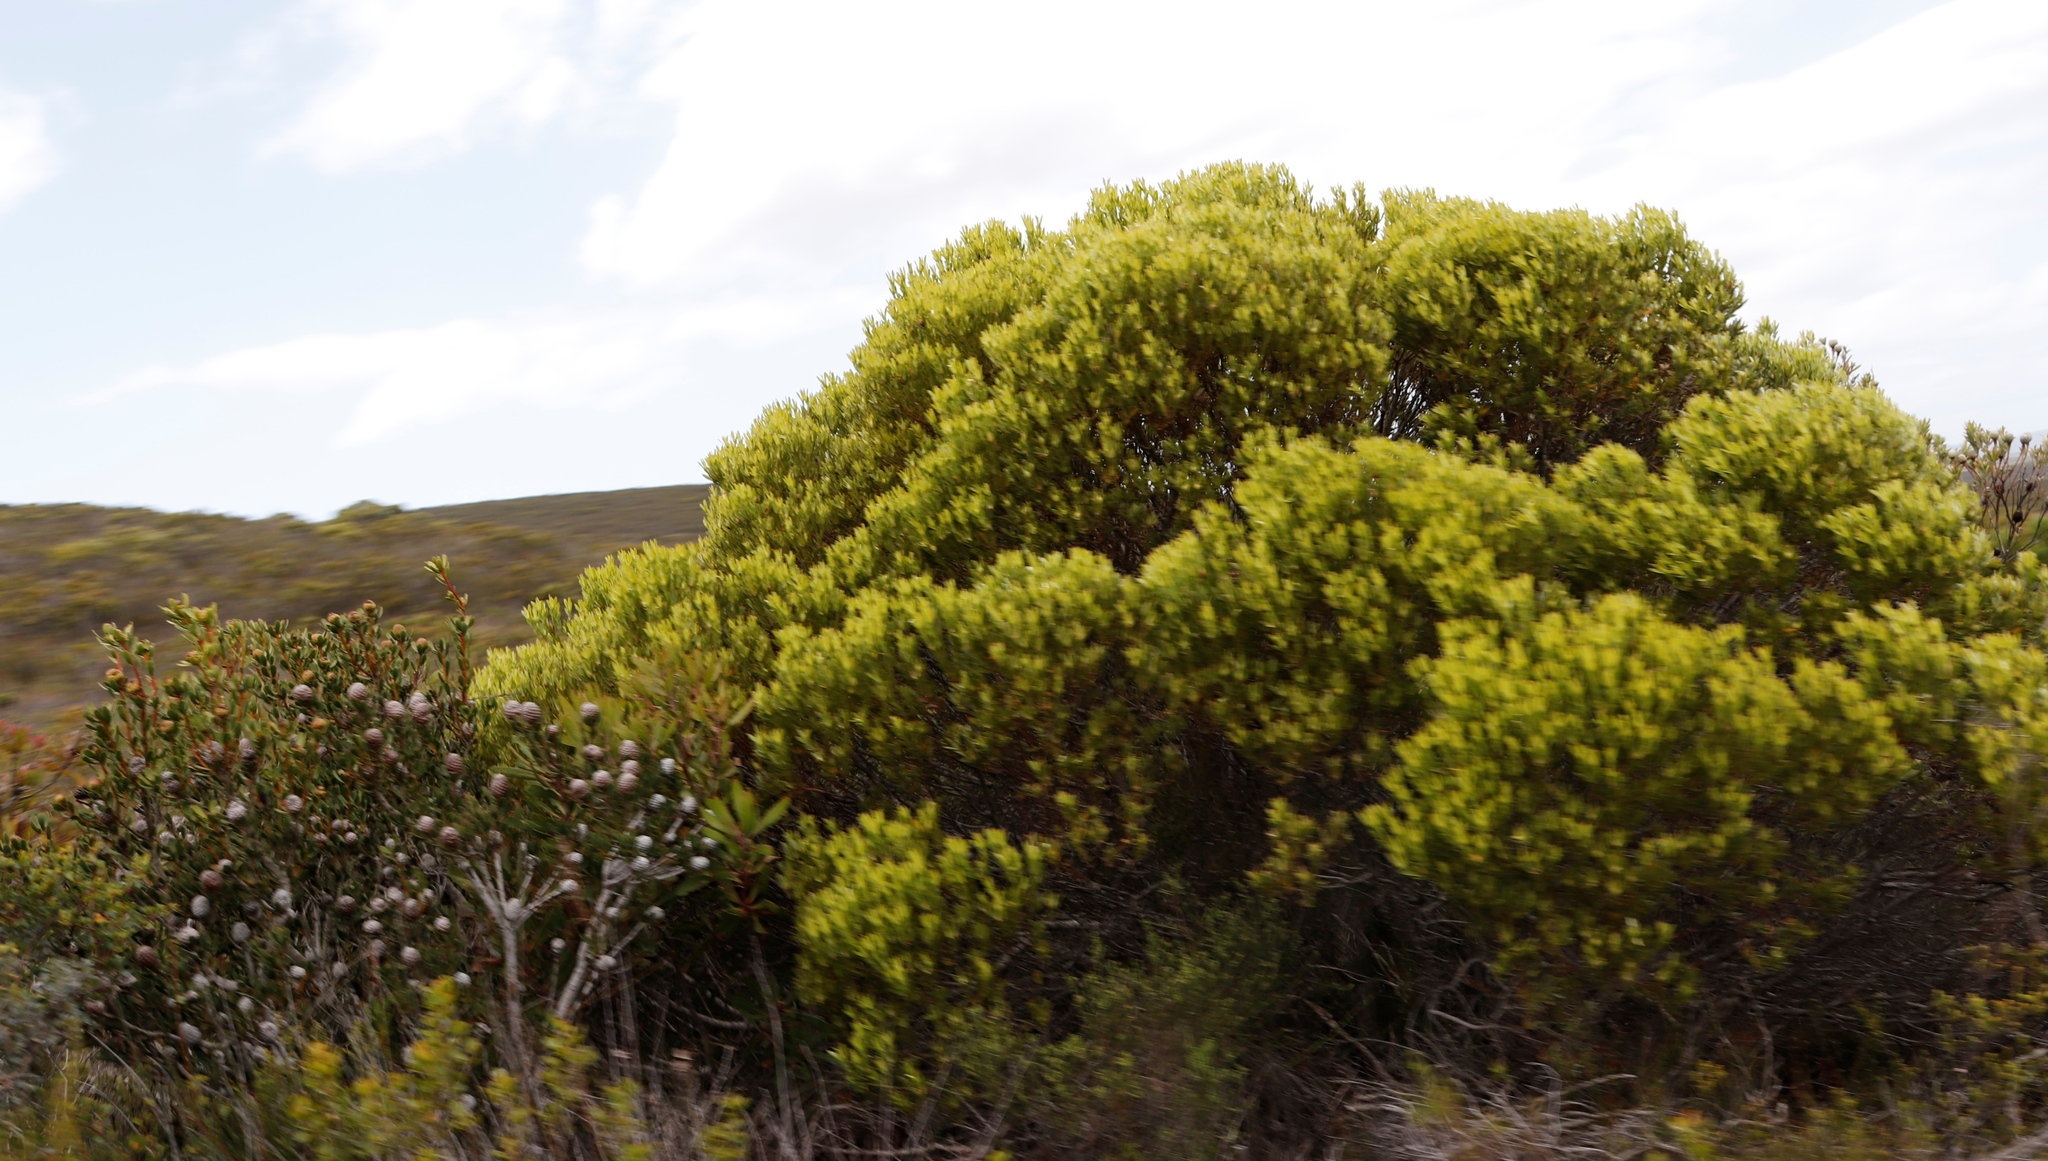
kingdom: Plantae
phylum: Tracheophyta
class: Magnoliopsida
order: Proteales
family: Proteaceae
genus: Leucadendron
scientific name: Leucadendron meridianum
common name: Limestone conebush
